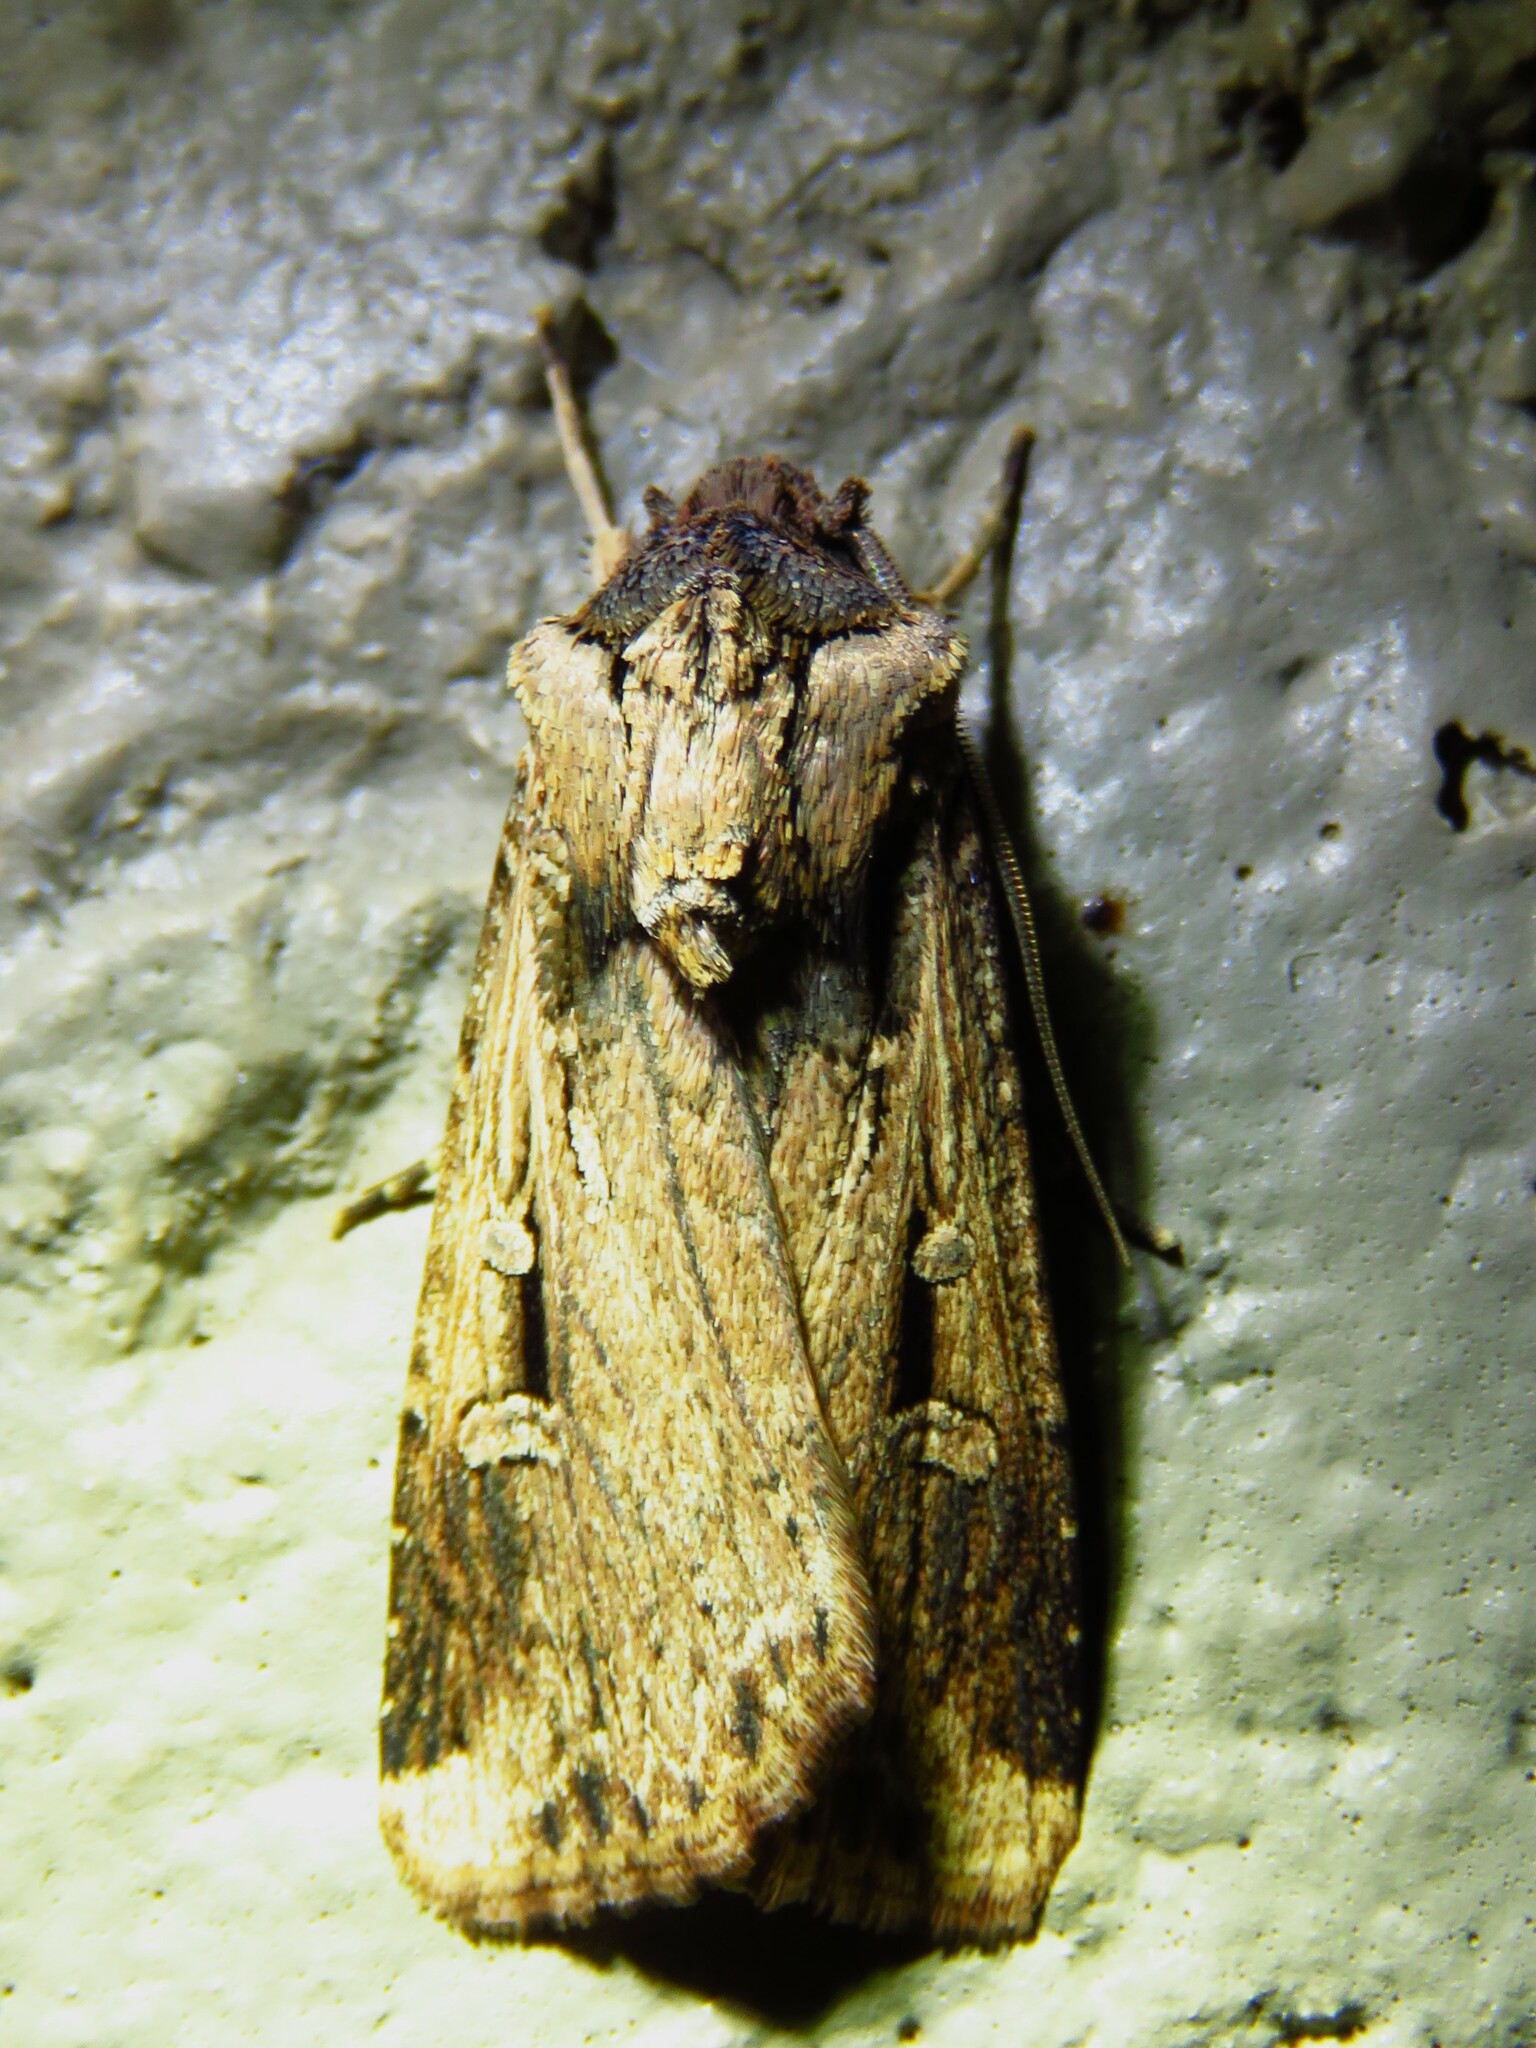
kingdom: Animalia
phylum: Arthropoda
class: Insecta
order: Lepidoptera
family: Noctuidae
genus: Feltia
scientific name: Feltia subterranea
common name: Granulate cutworm
